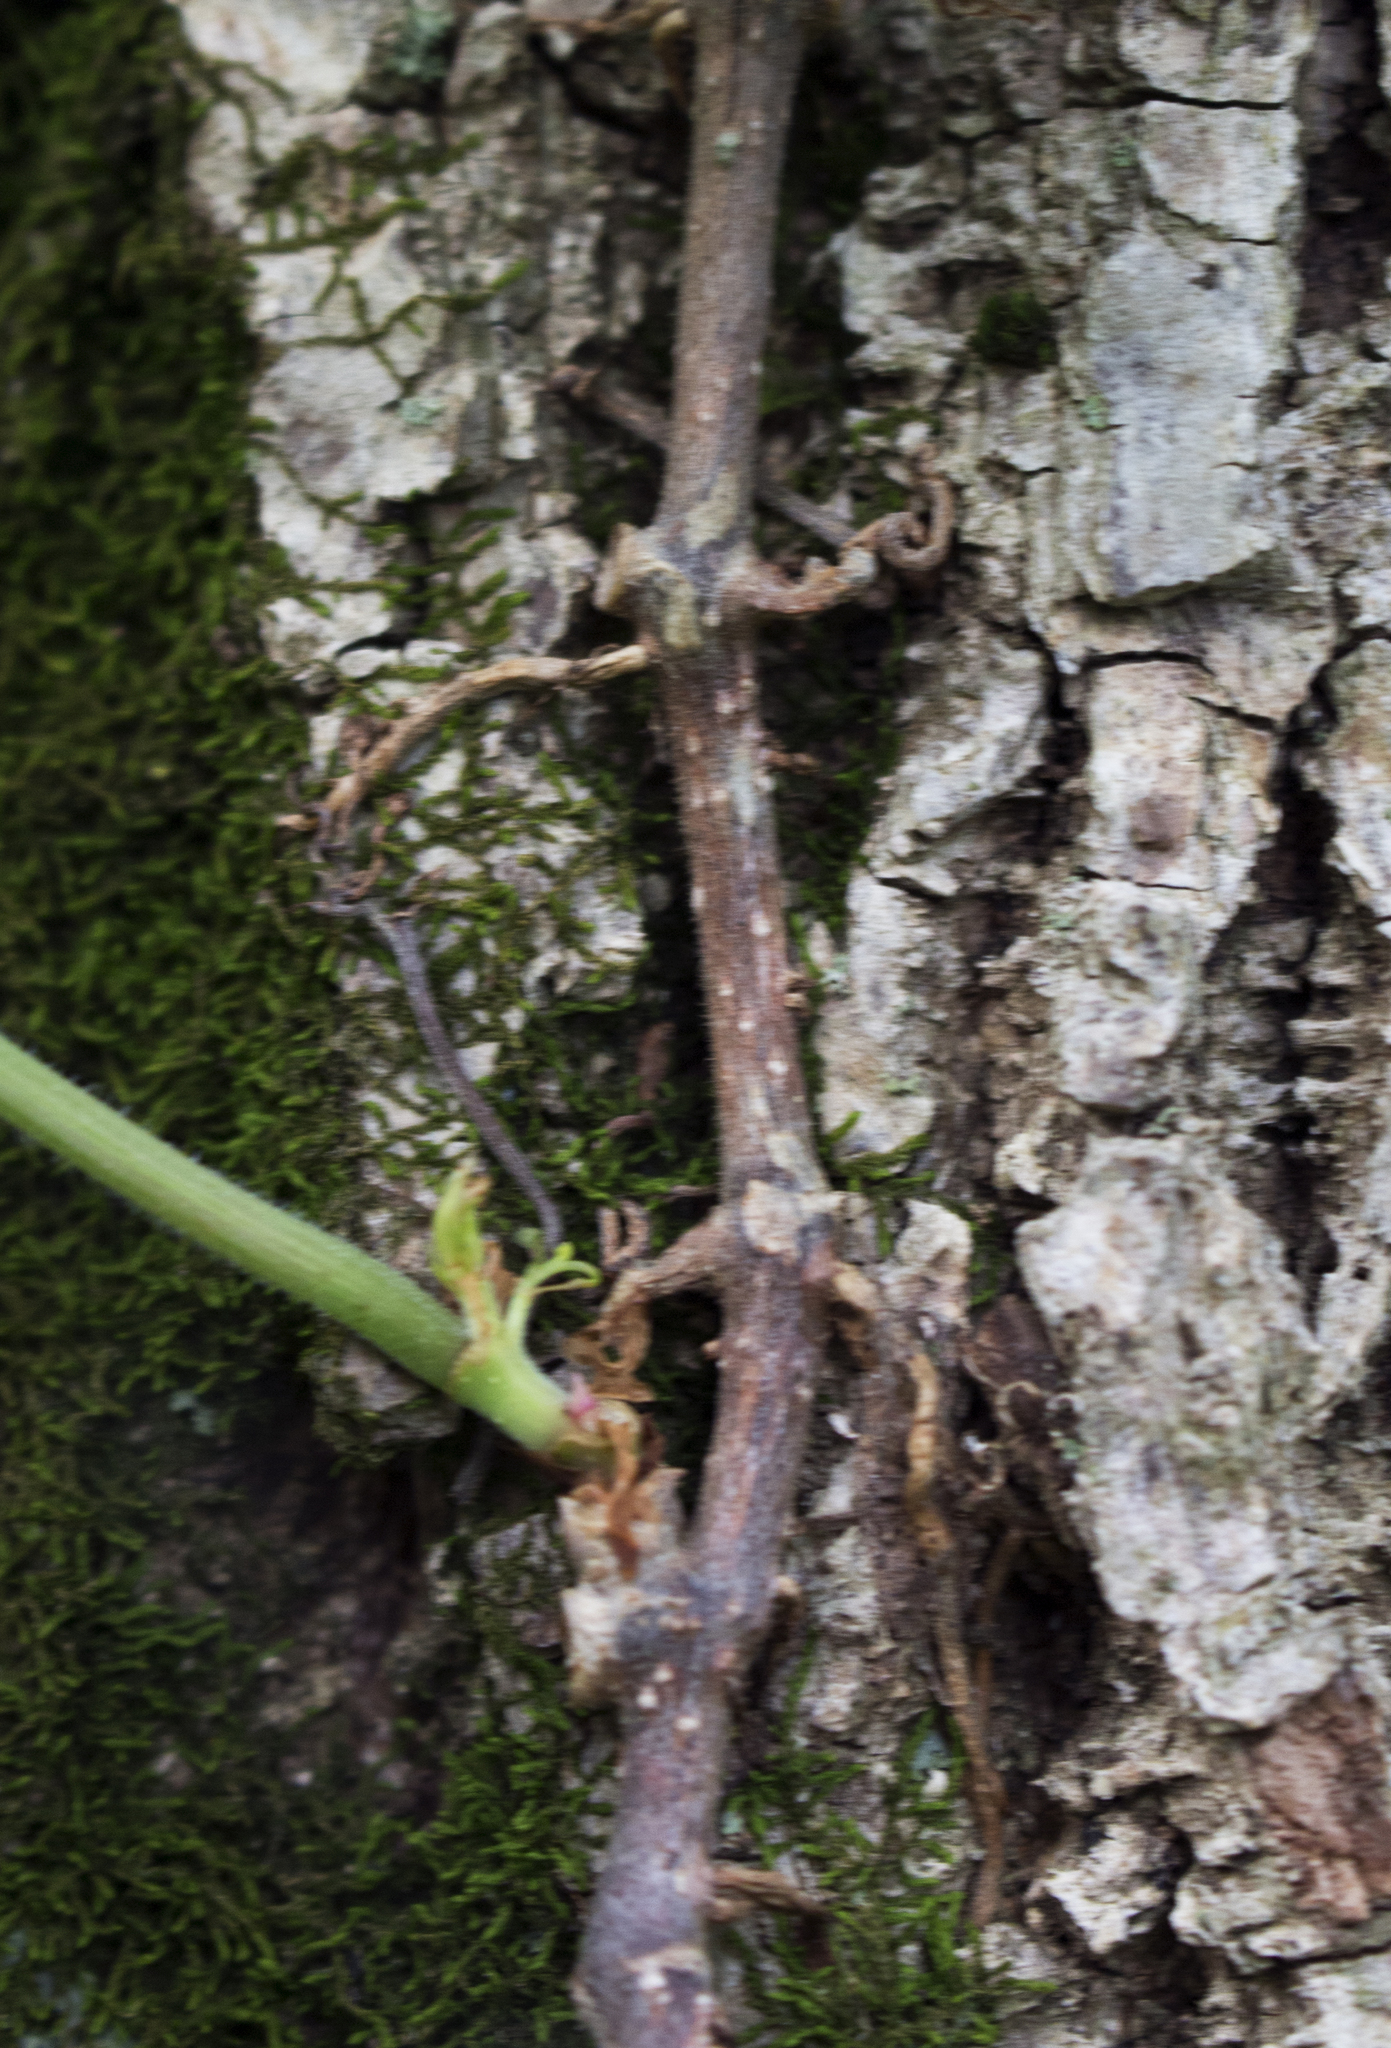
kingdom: Plantae
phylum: Tracheophyta
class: Magnoliopsida
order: Vitales
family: Vitaceae
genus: Parthenocissus
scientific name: Parthenocissus quinquefolia
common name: Virginia-creeper
